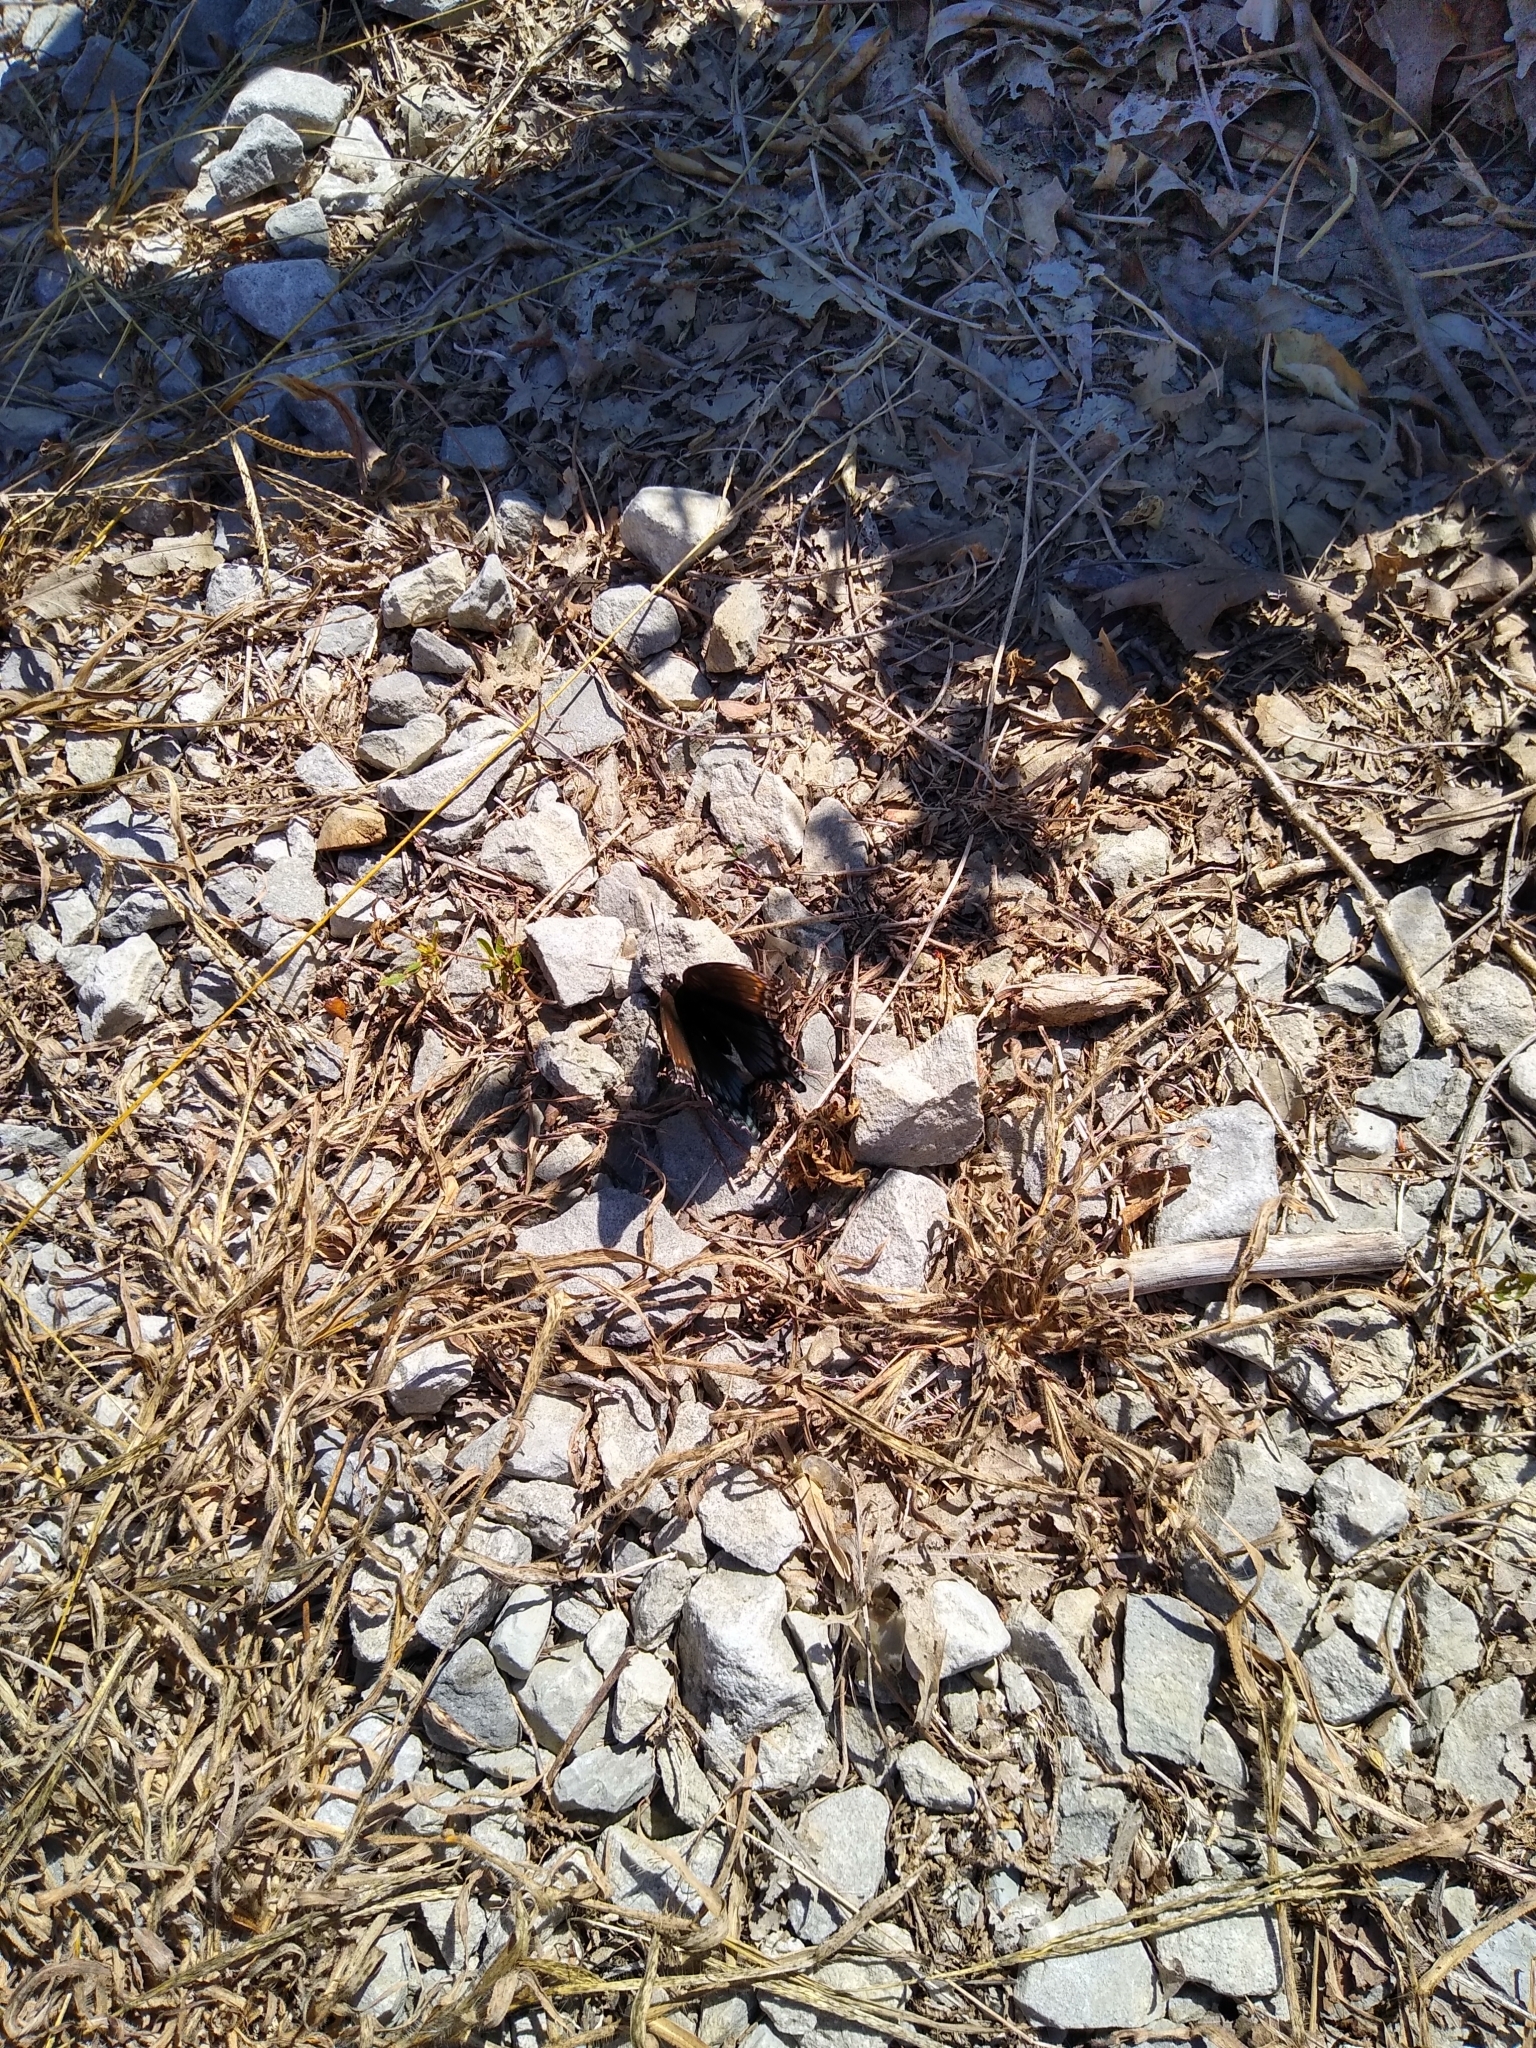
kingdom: Animalia
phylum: Arthropoda
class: Insecta
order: Lepidoptera
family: Nymphalidae
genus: Limenitis
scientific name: Limenitis astyanax
